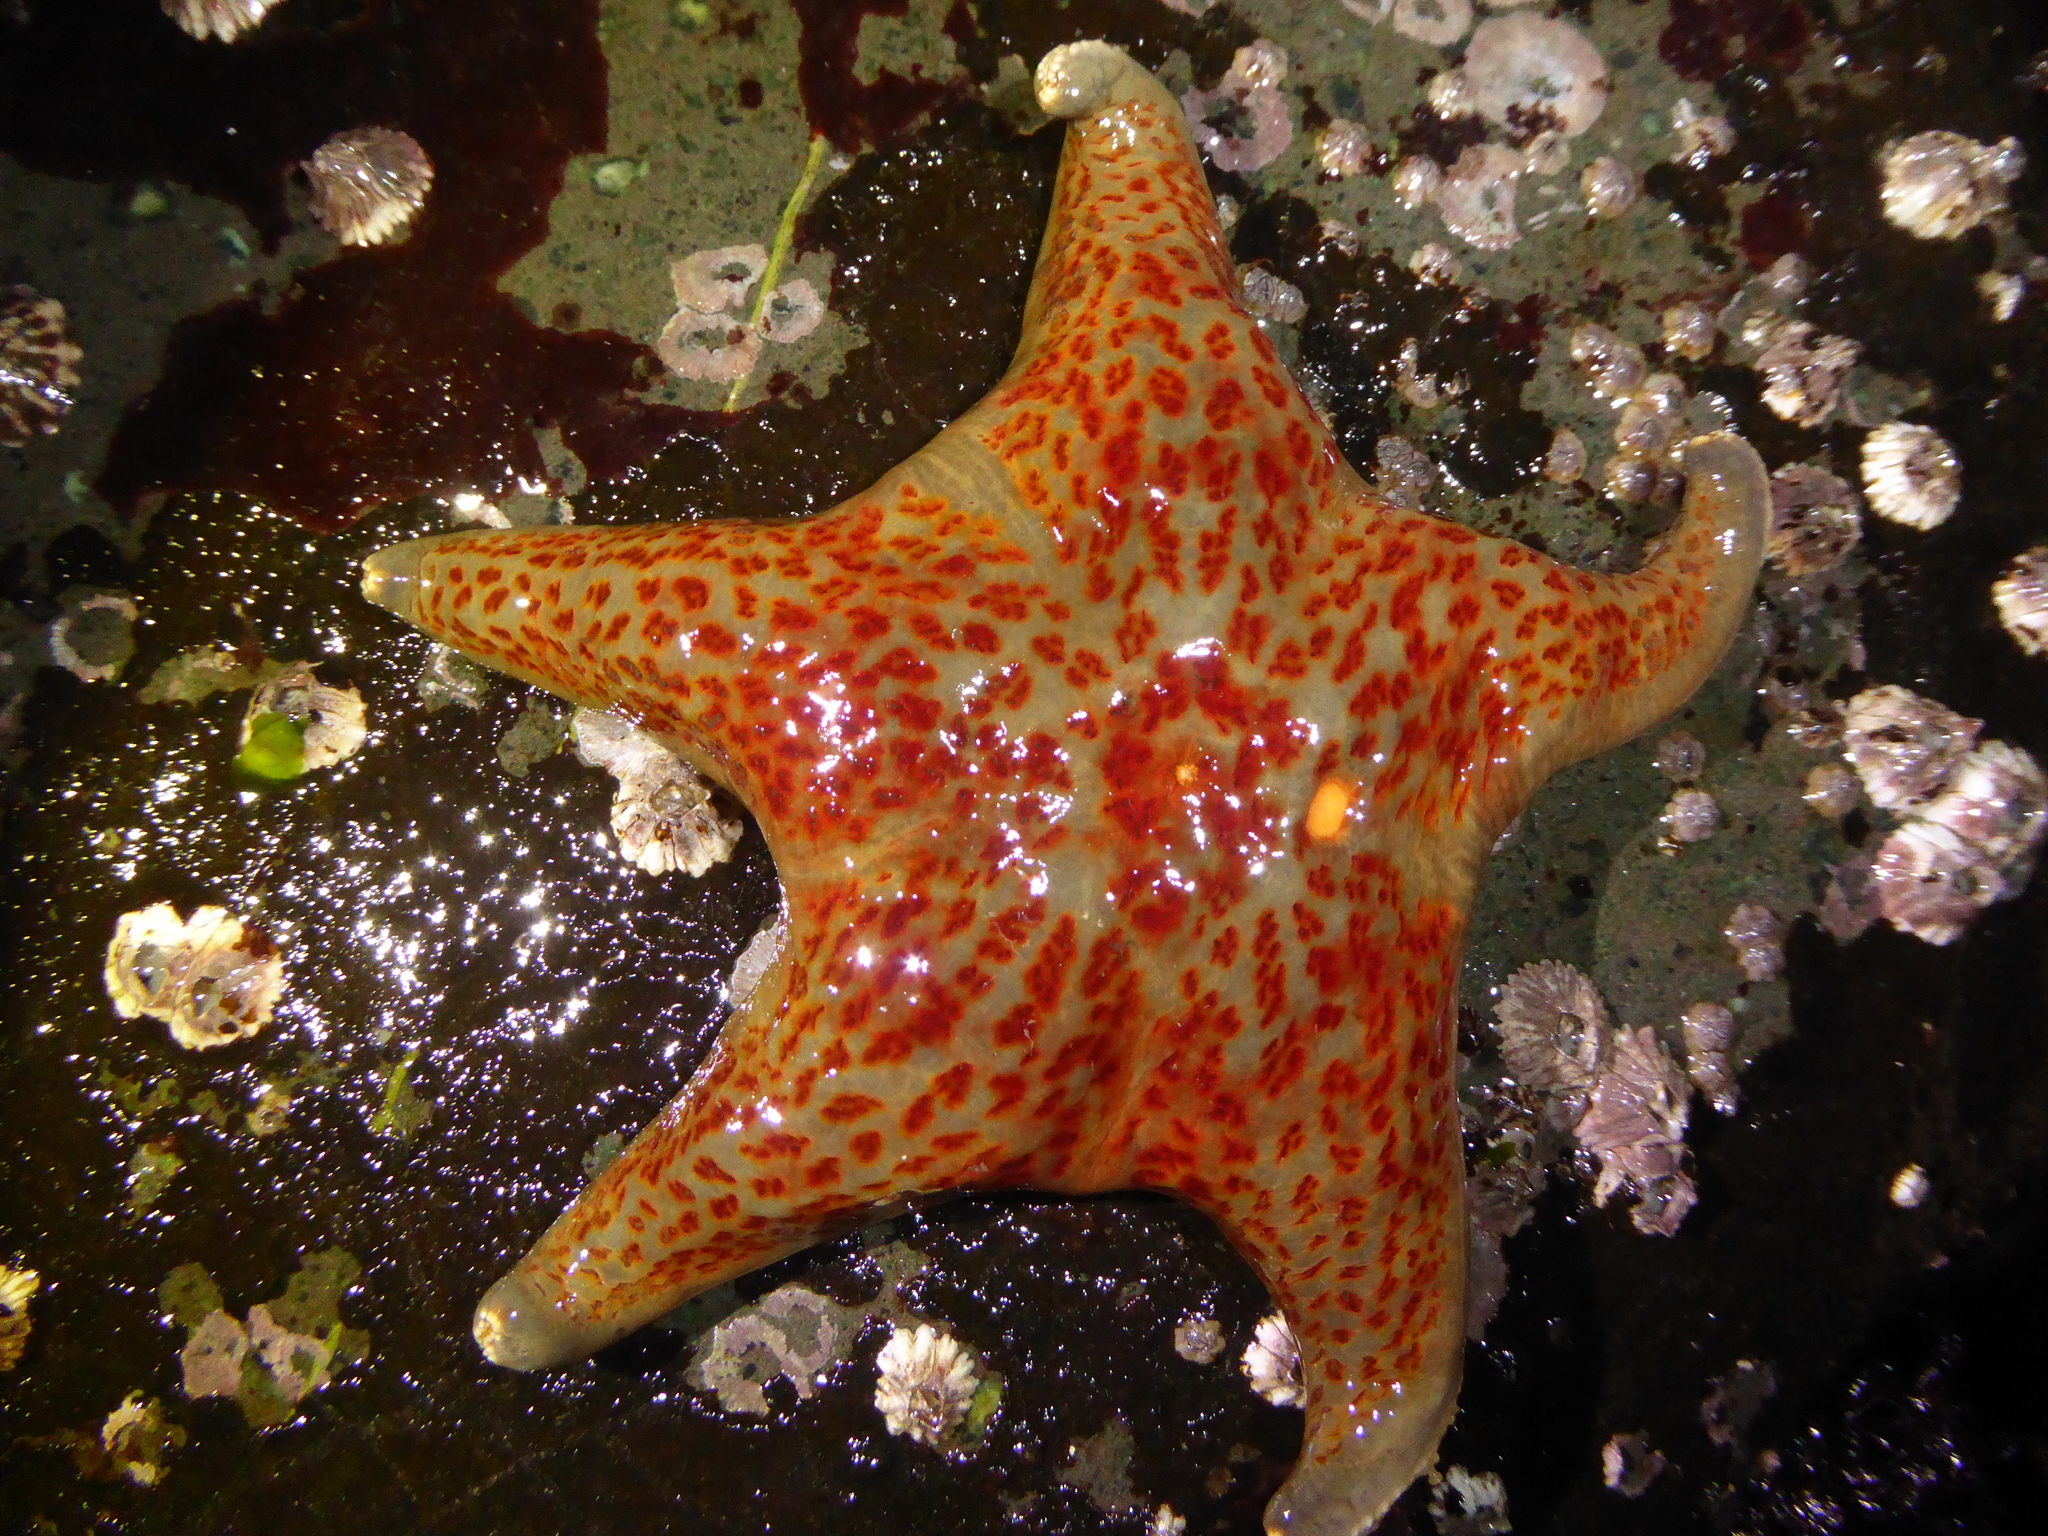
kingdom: Animalia
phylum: Echinodermata
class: Asteroidea
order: Valvatida
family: Asteropseidae
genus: Dermasterias
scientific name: Dermasterias imbricata
